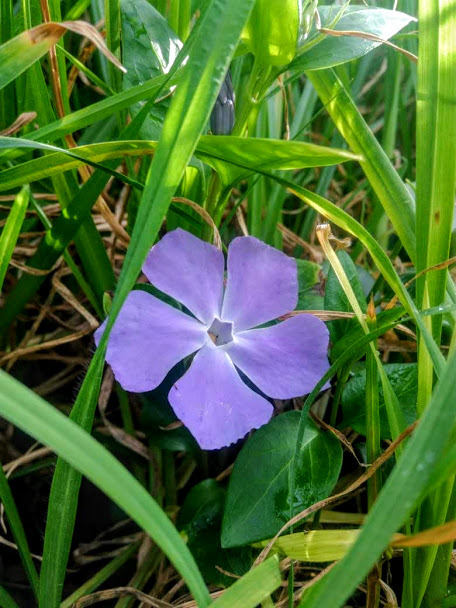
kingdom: Plantae
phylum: Tracheophyta
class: Magnoliopsida
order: Gentianales
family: Apocynaceae
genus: Vinca
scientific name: Vinca major
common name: Greater periwinkle
